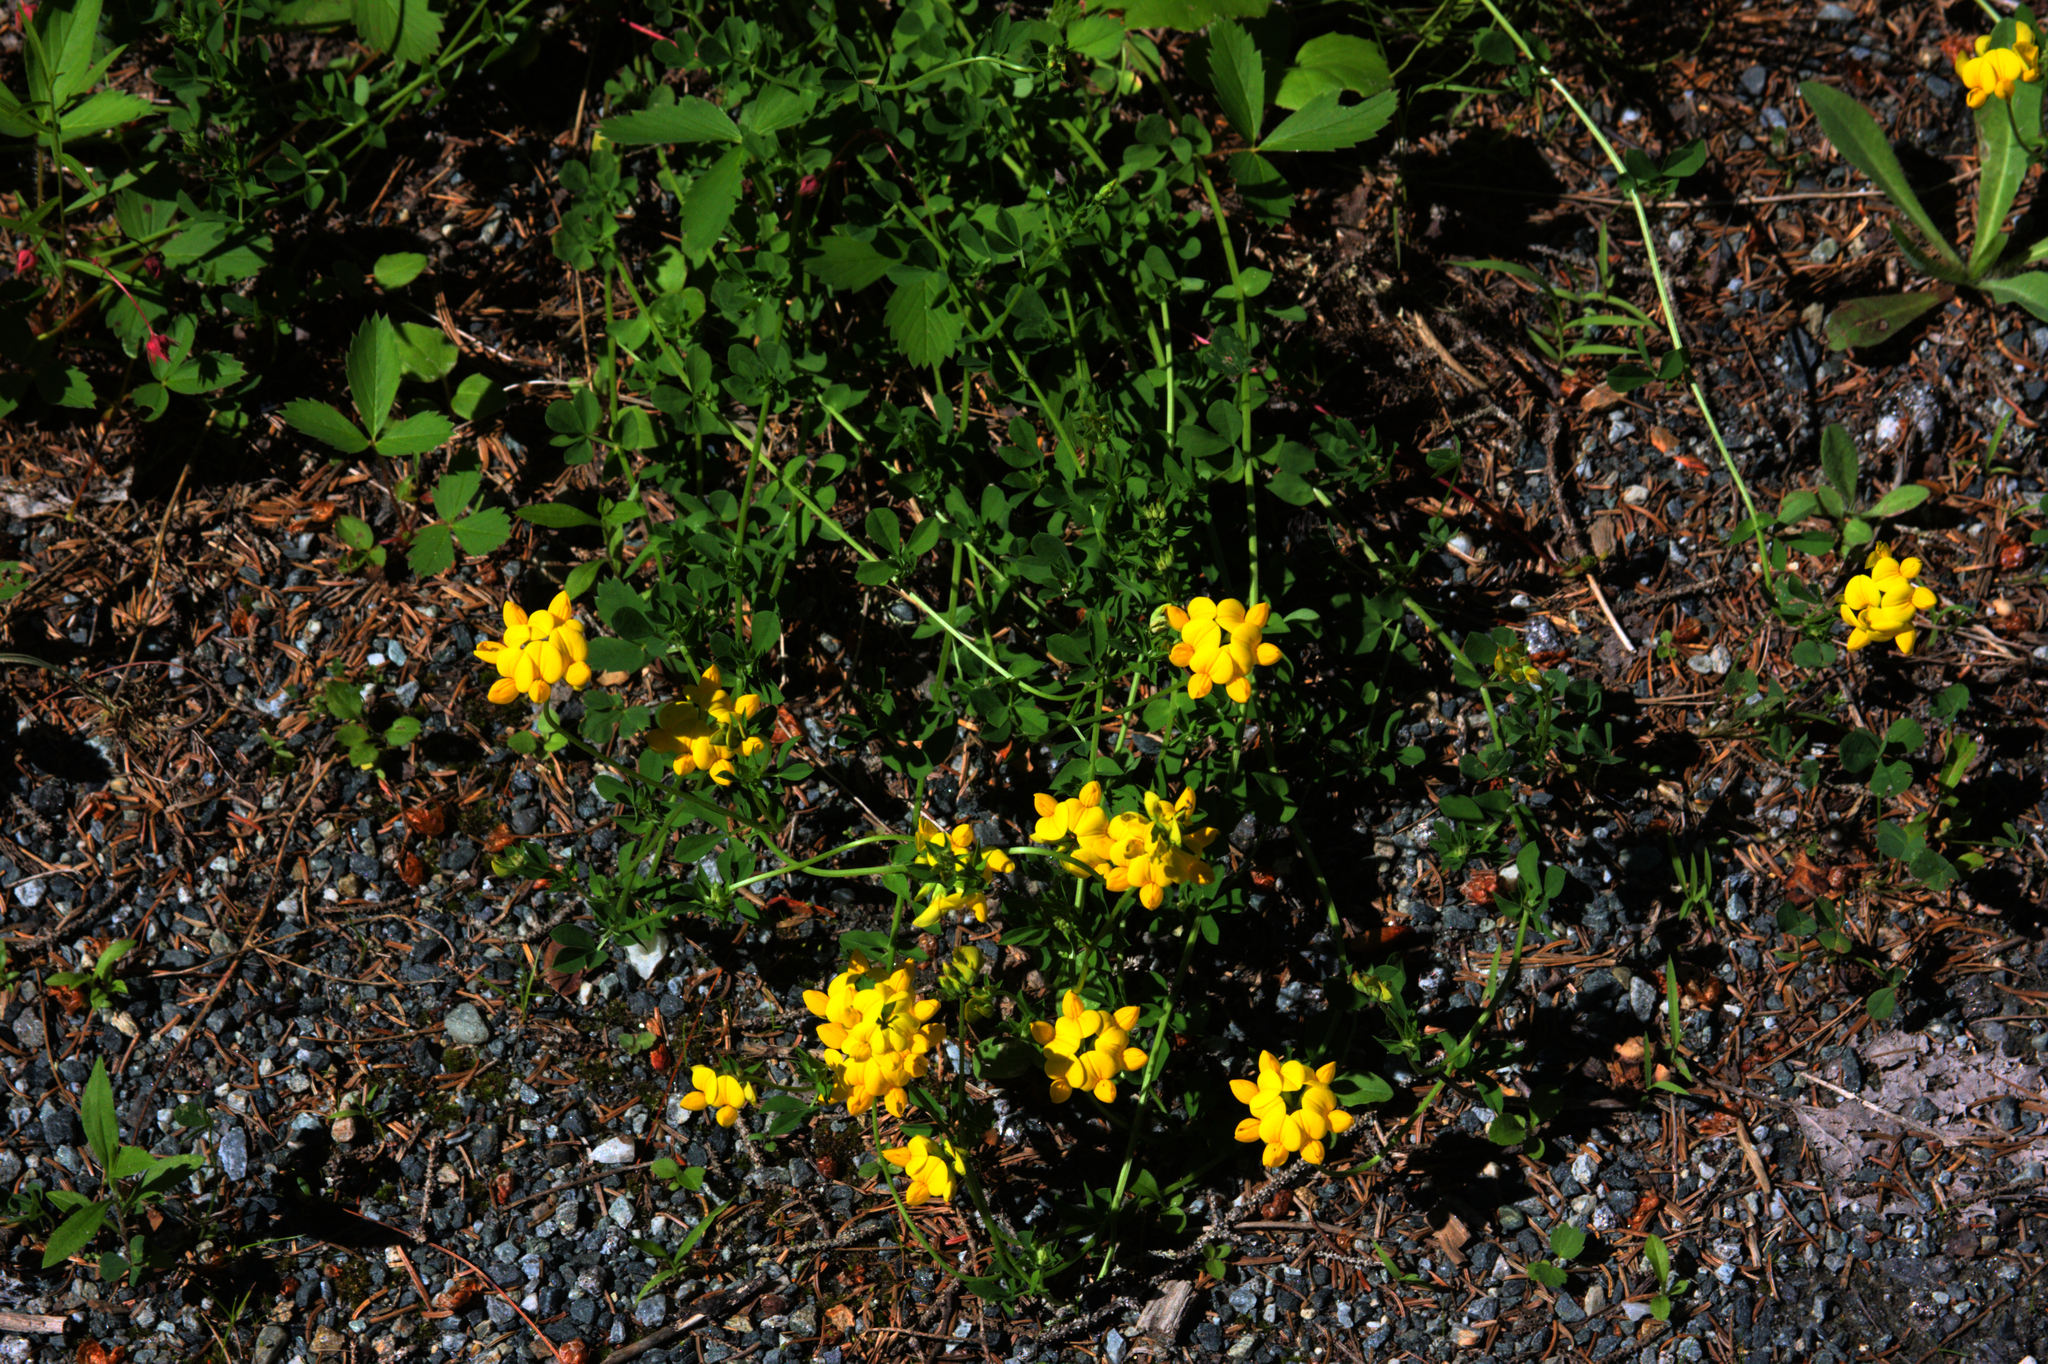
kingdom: Plantae
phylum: Tracheophyta
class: Magnoliopsida
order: Fabales
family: Fabaceae
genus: Lotus
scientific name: Lotus corniculatus
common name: Common bird's-foot-trefoil
